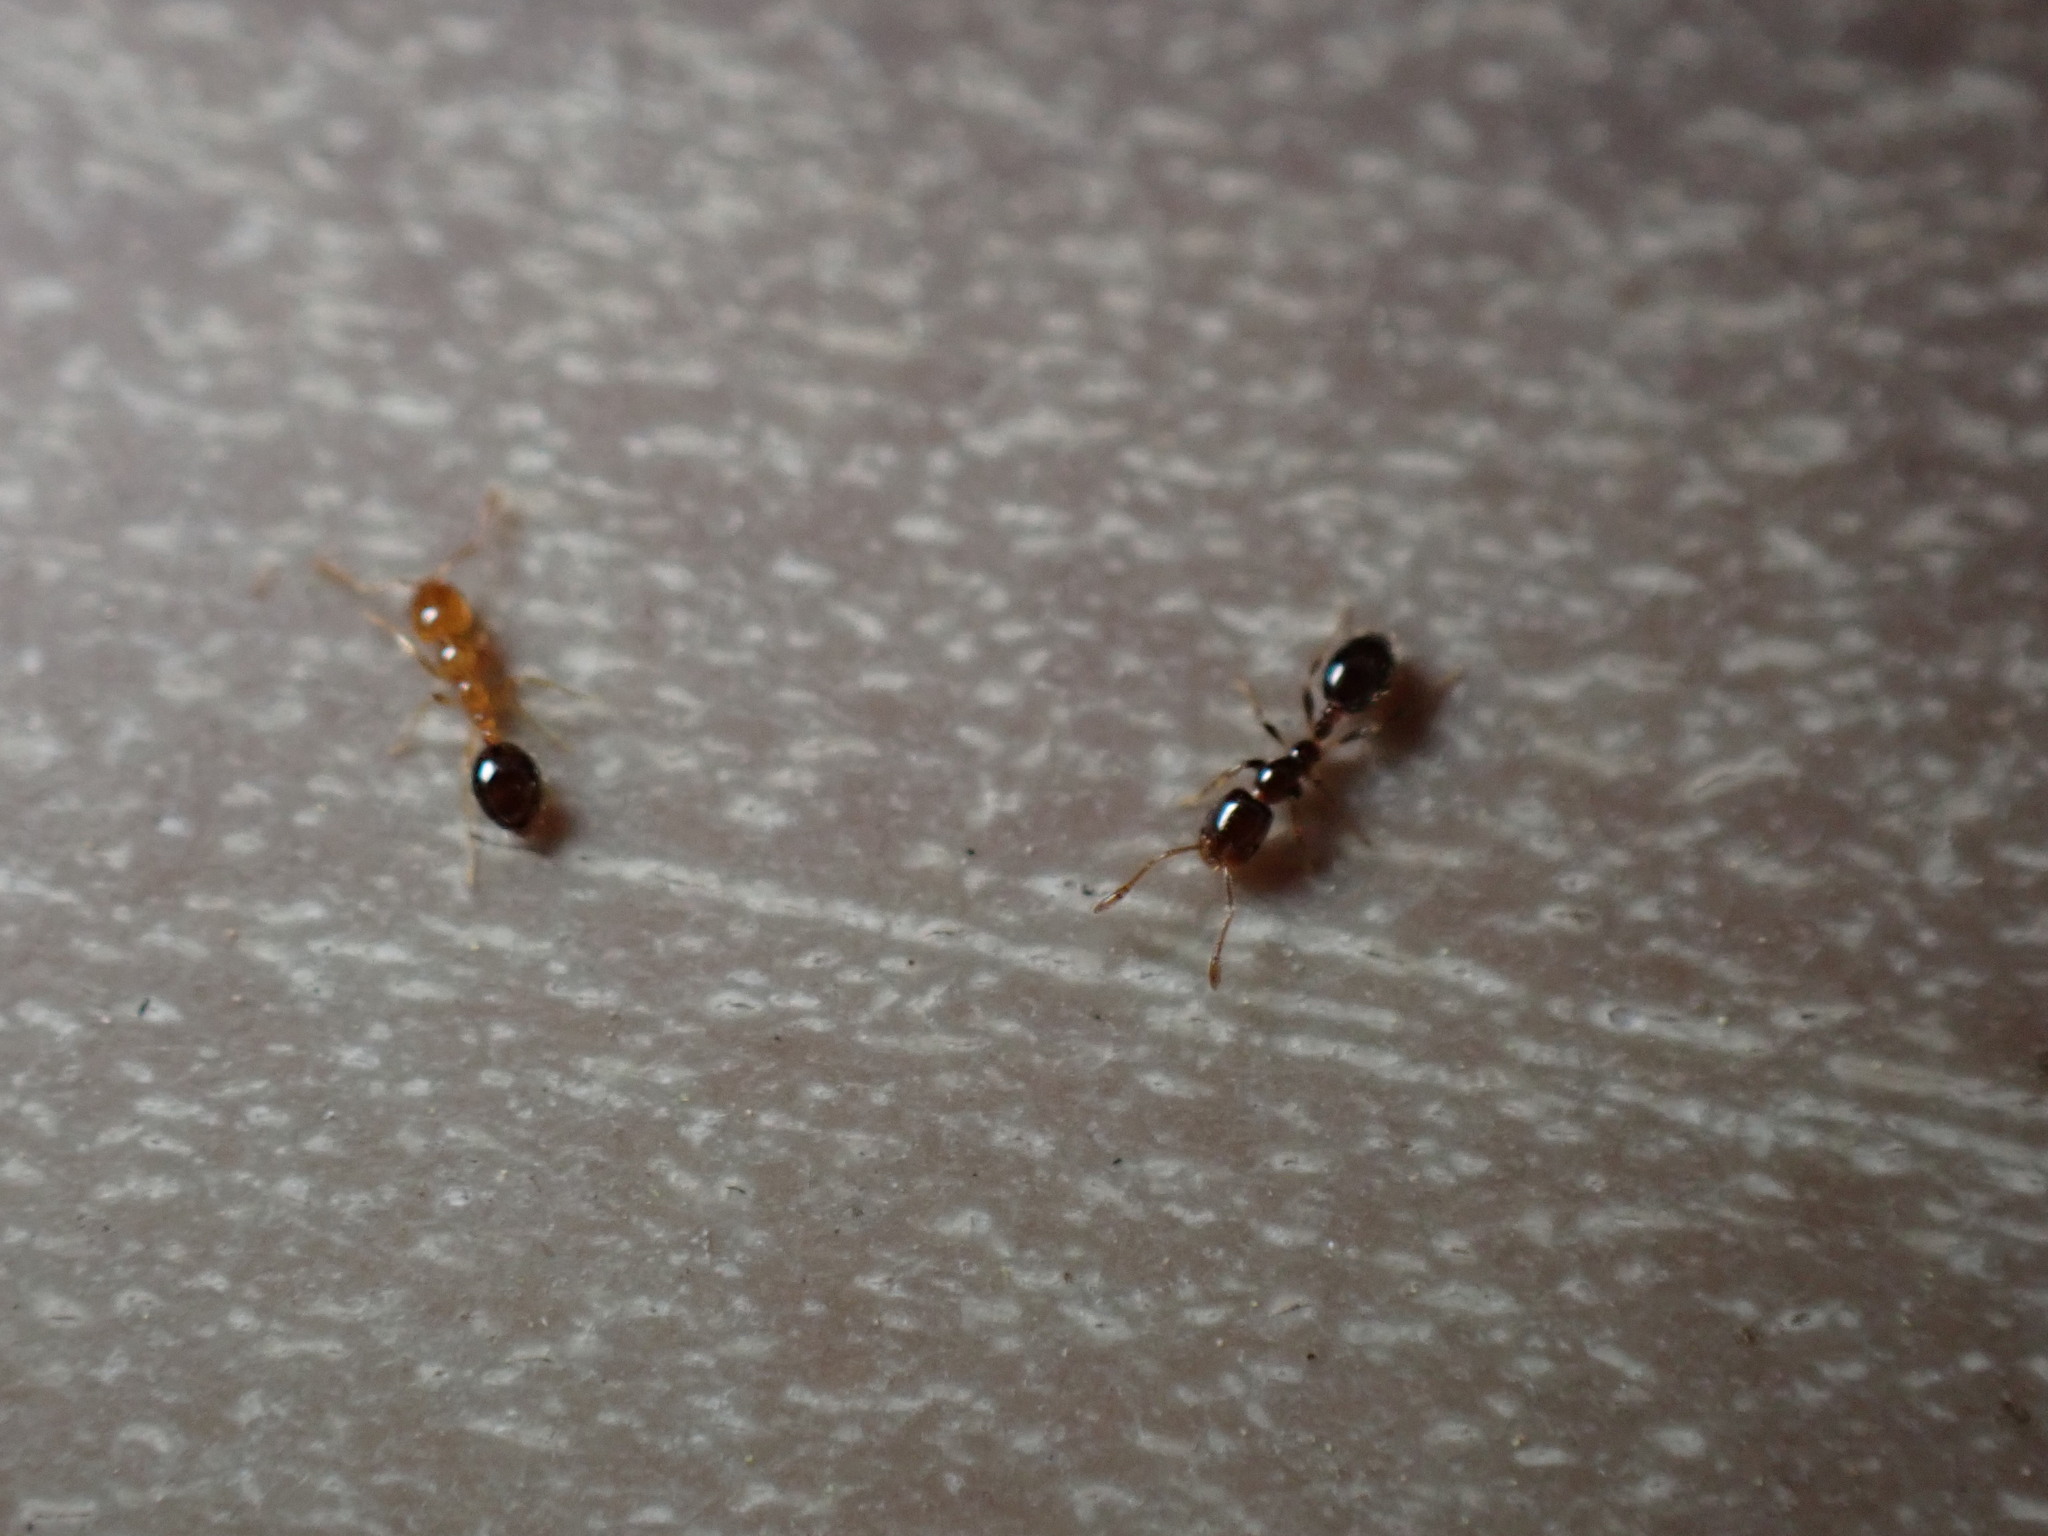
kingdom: Animalia
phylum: Arthropoda
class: Insecta
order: Hymenoptera
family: Formicidae
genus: Monomorium
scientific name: Monomorium chinense
